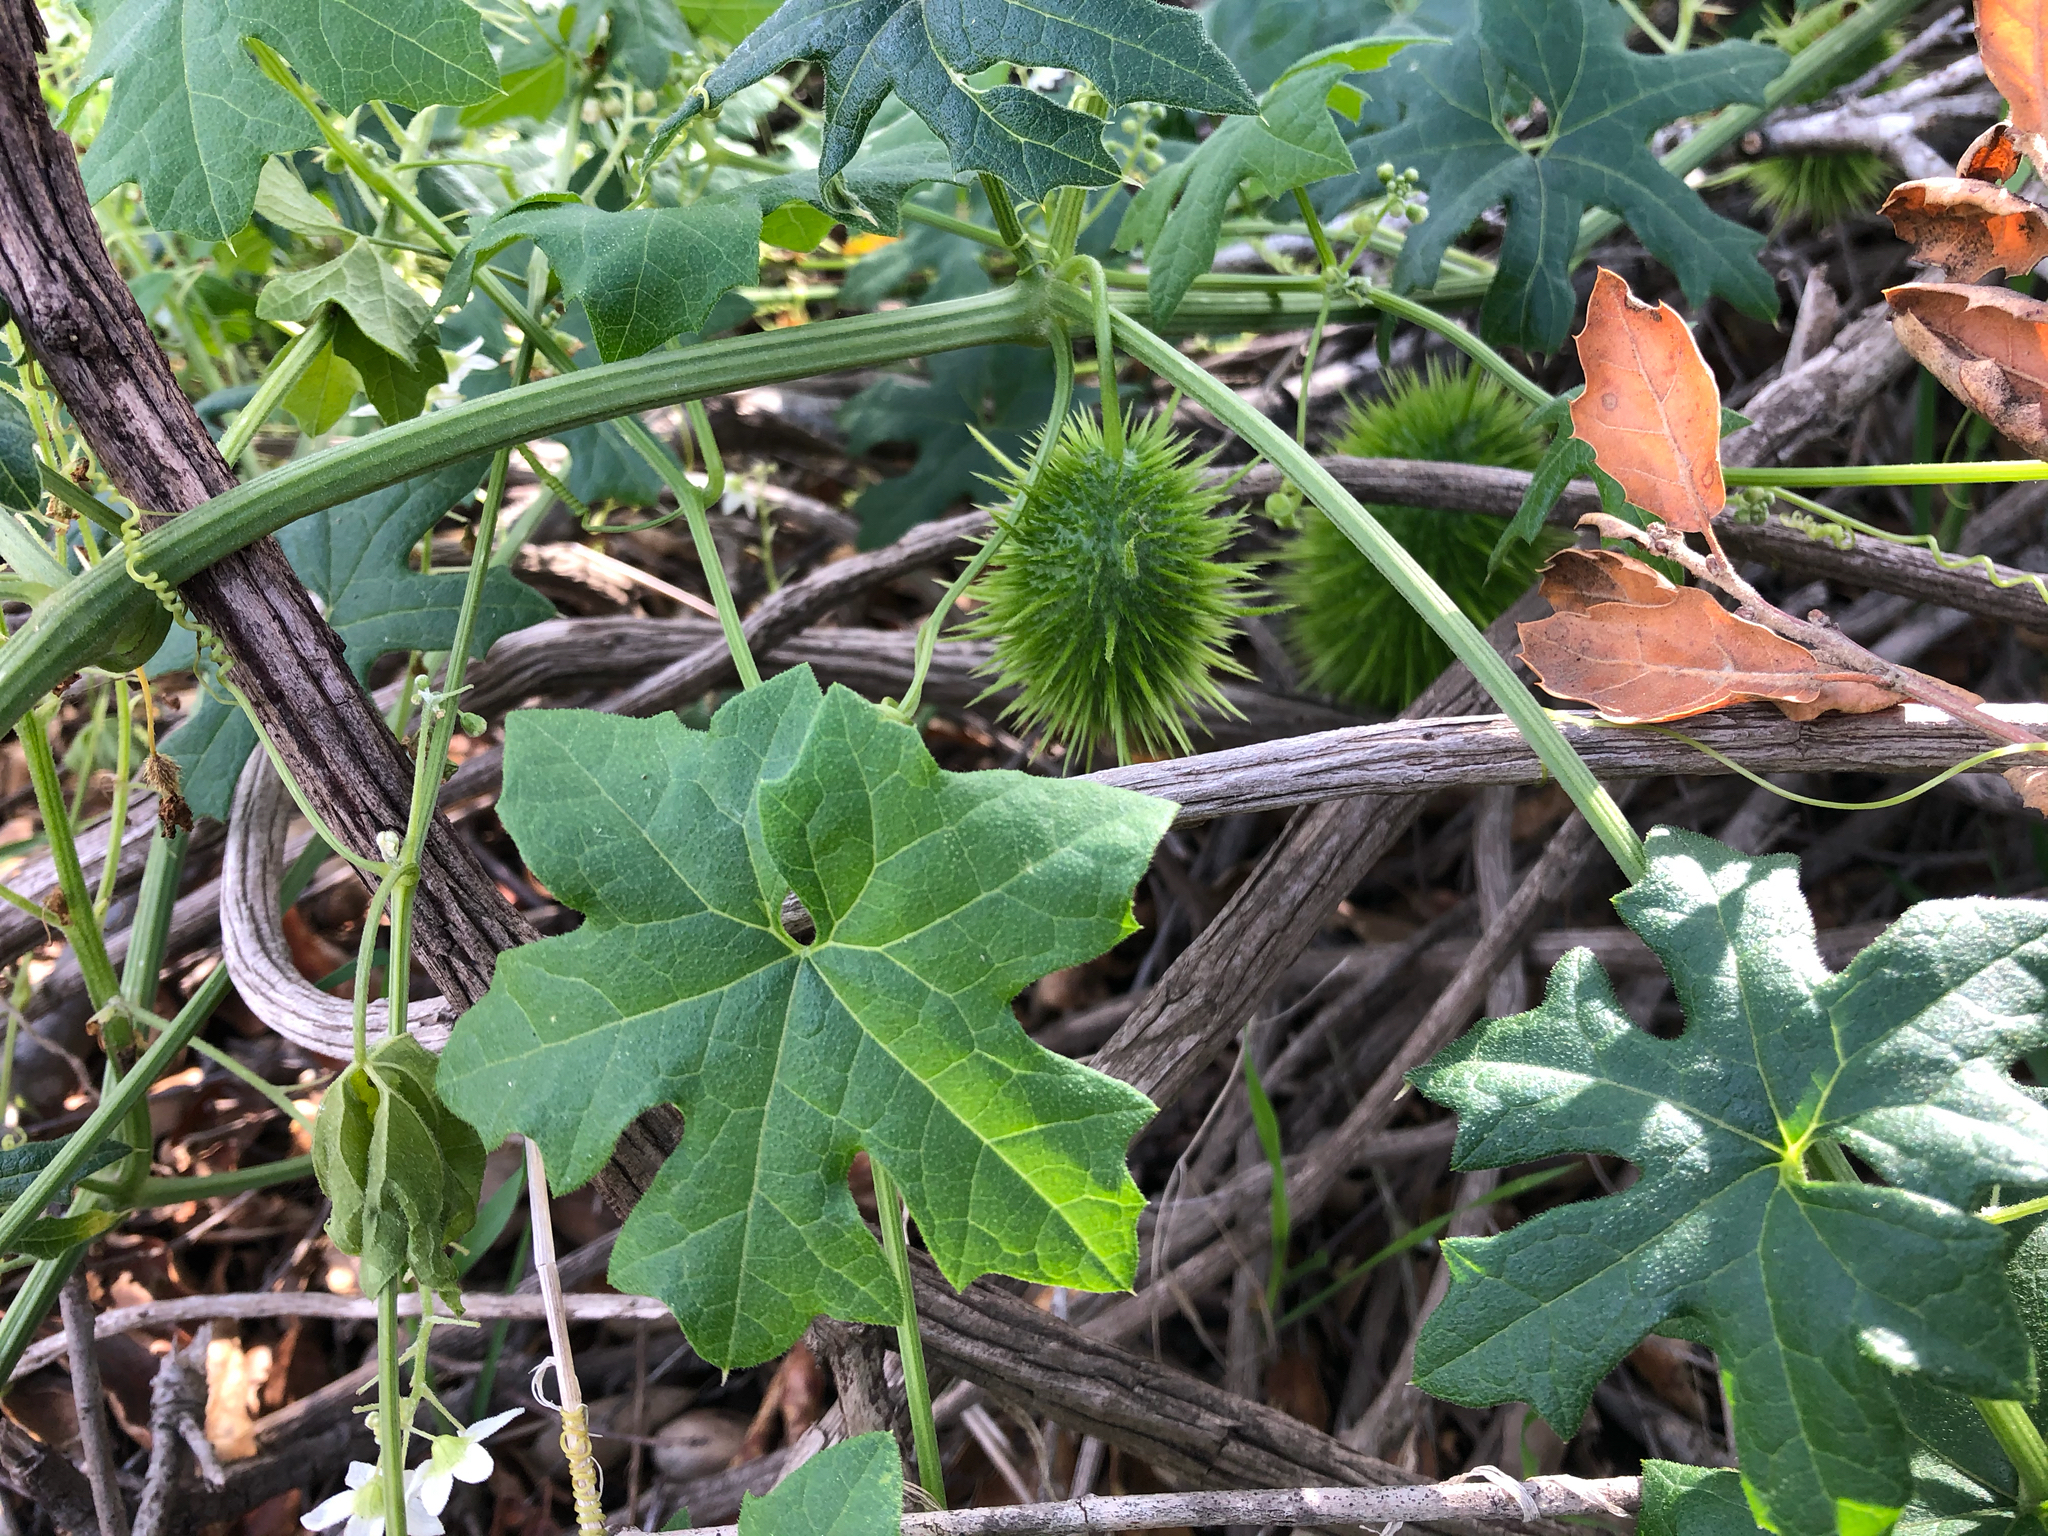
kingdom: Plantae
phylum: Tracheophyta
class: Magnoliopsida
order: Cucurbitales
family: Cucurbitaceae
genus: Marah
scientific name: Marah macrocarpa
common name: Cucamonga manroot
